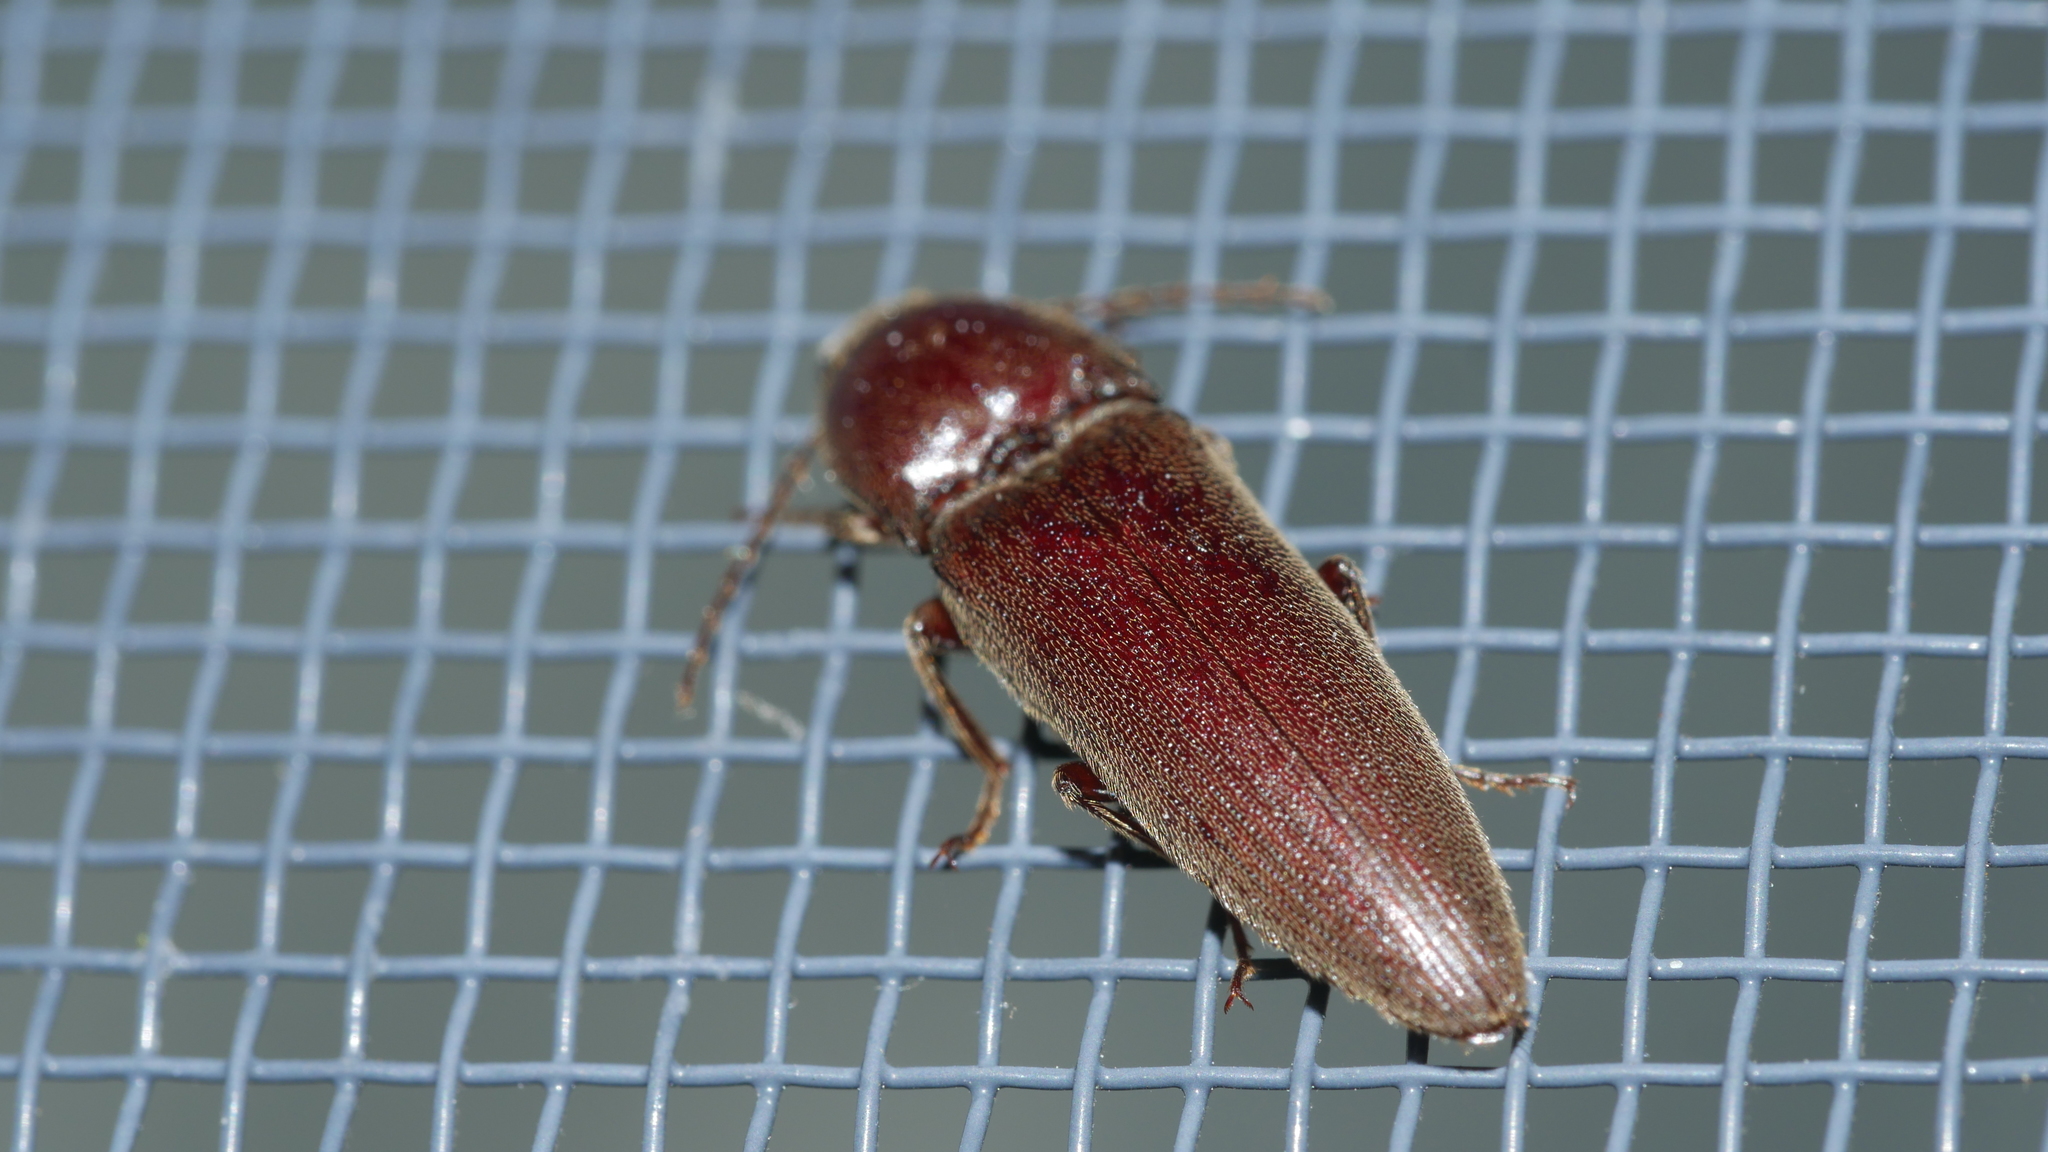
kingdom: Animalia
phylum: Arthropoda
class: Insecta
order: Coleoptera
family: Elateridae
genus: Melanotus
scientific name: Melanotus
